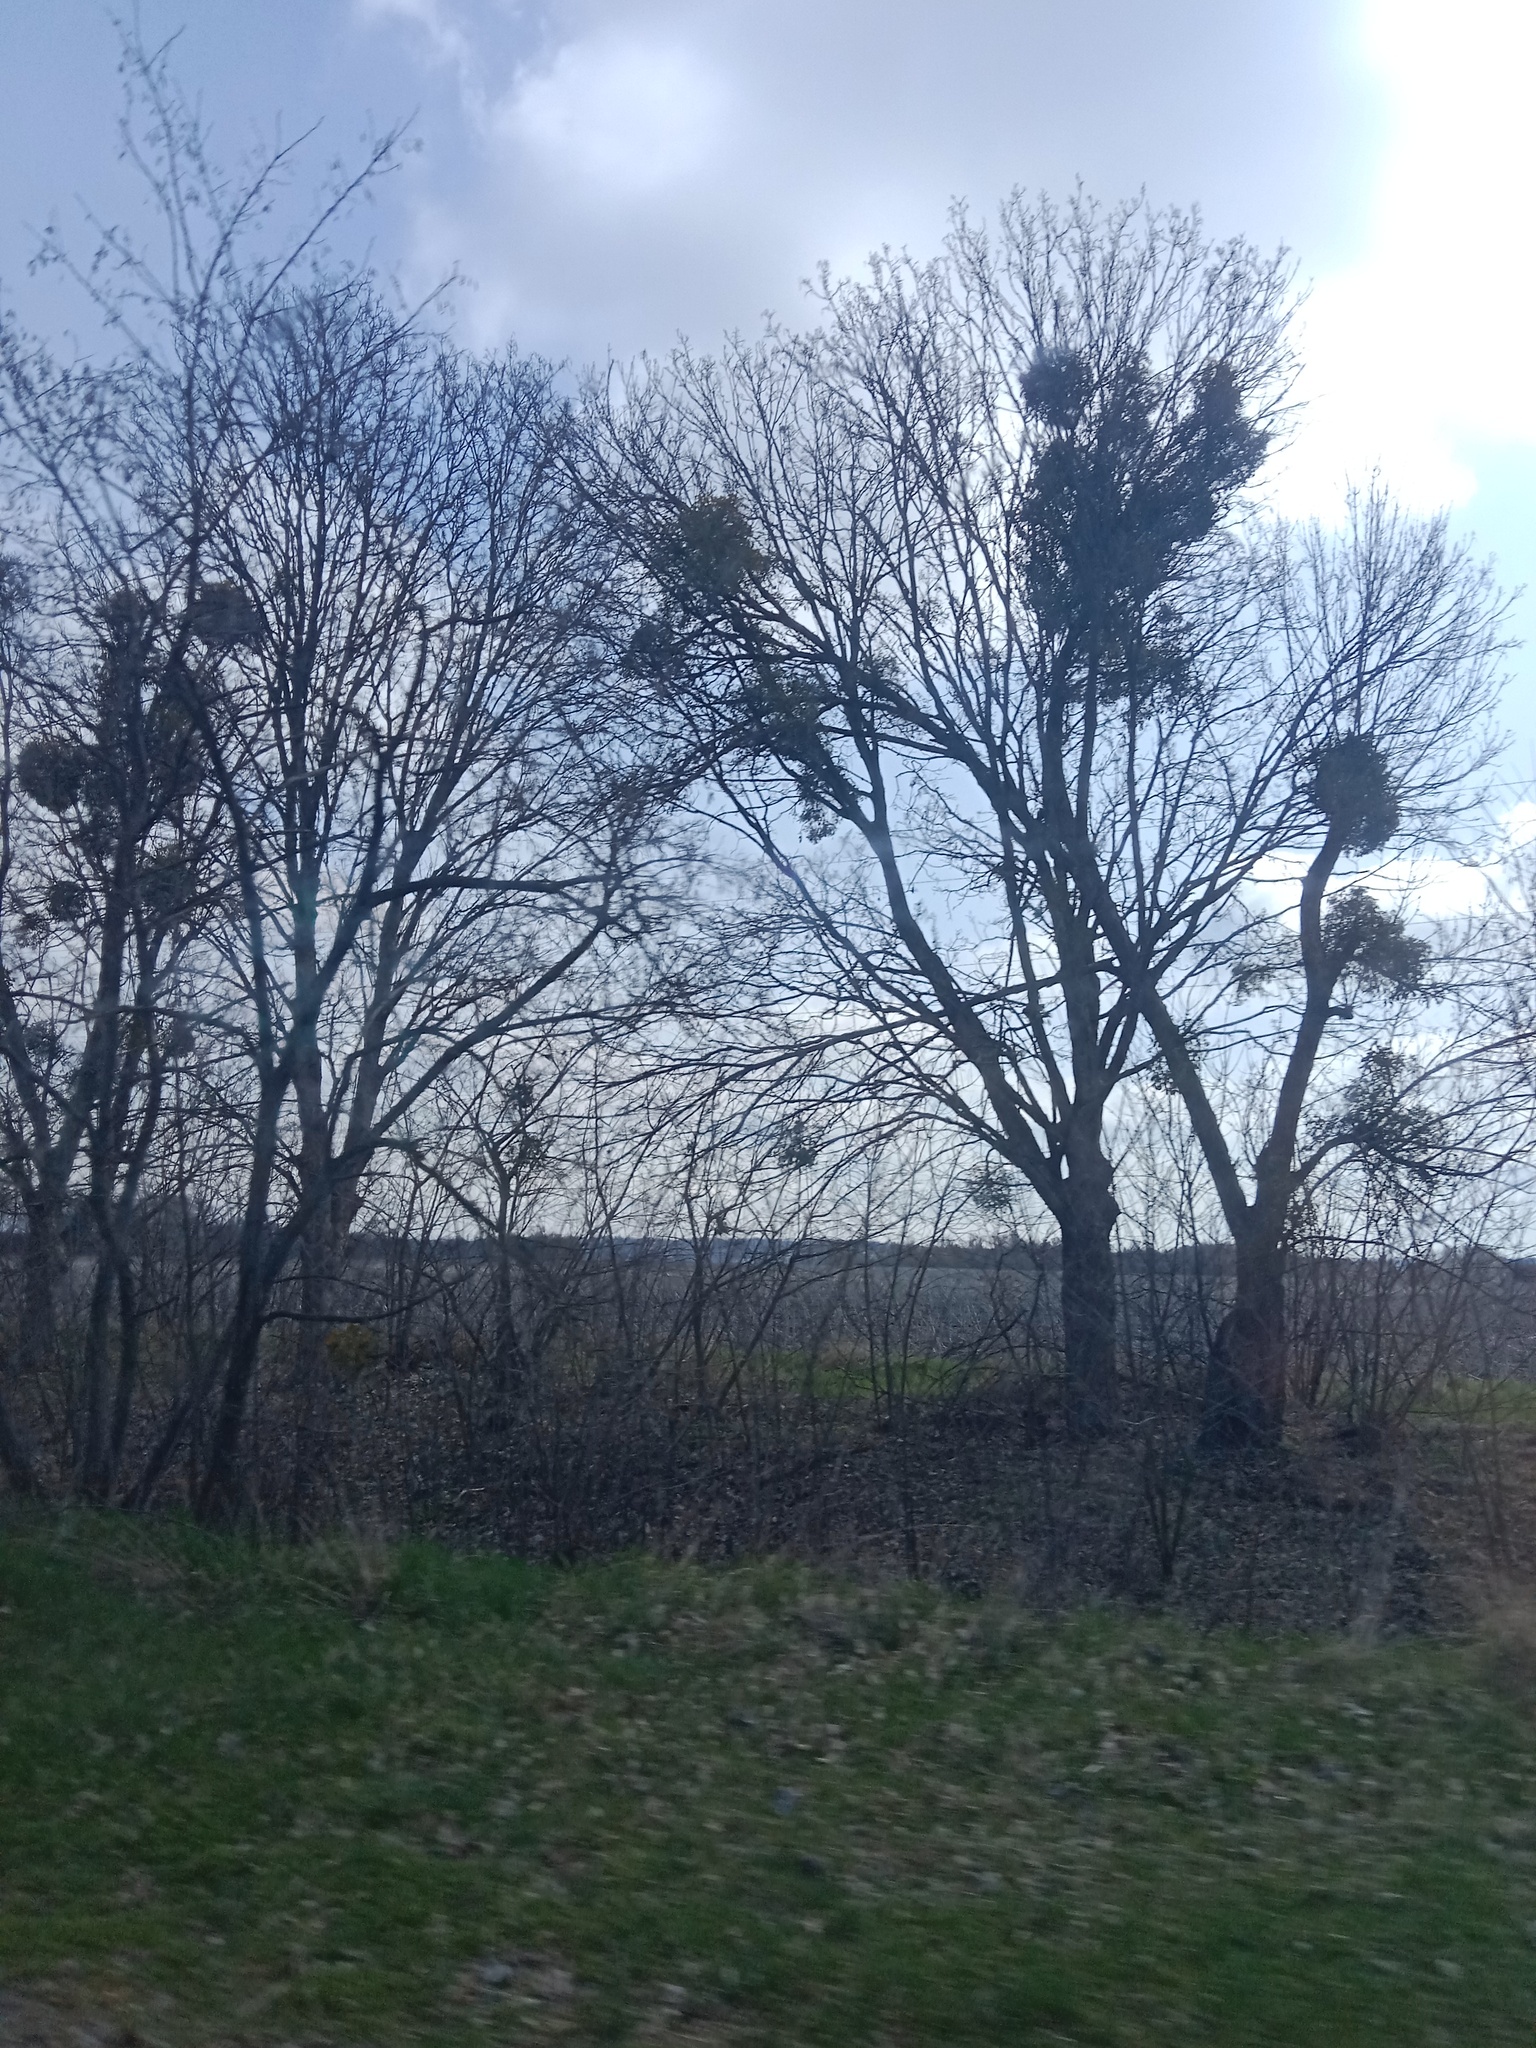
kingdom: Plantae
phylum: Tracheophyta
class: Magnoliopsida
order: Santalales
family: Viscaceae
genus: Viscum
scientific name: Viscum album
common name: Mistletoe
